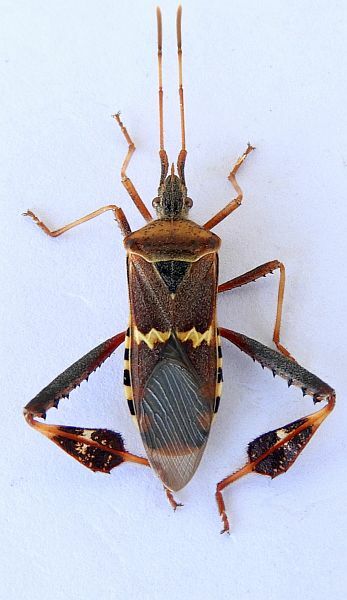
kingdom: Animalia
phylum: Arthropoda
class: Insecta
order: Hemiptera
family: Coreidae
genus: Leptoglossus
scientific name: Leptoglossus clypealis
